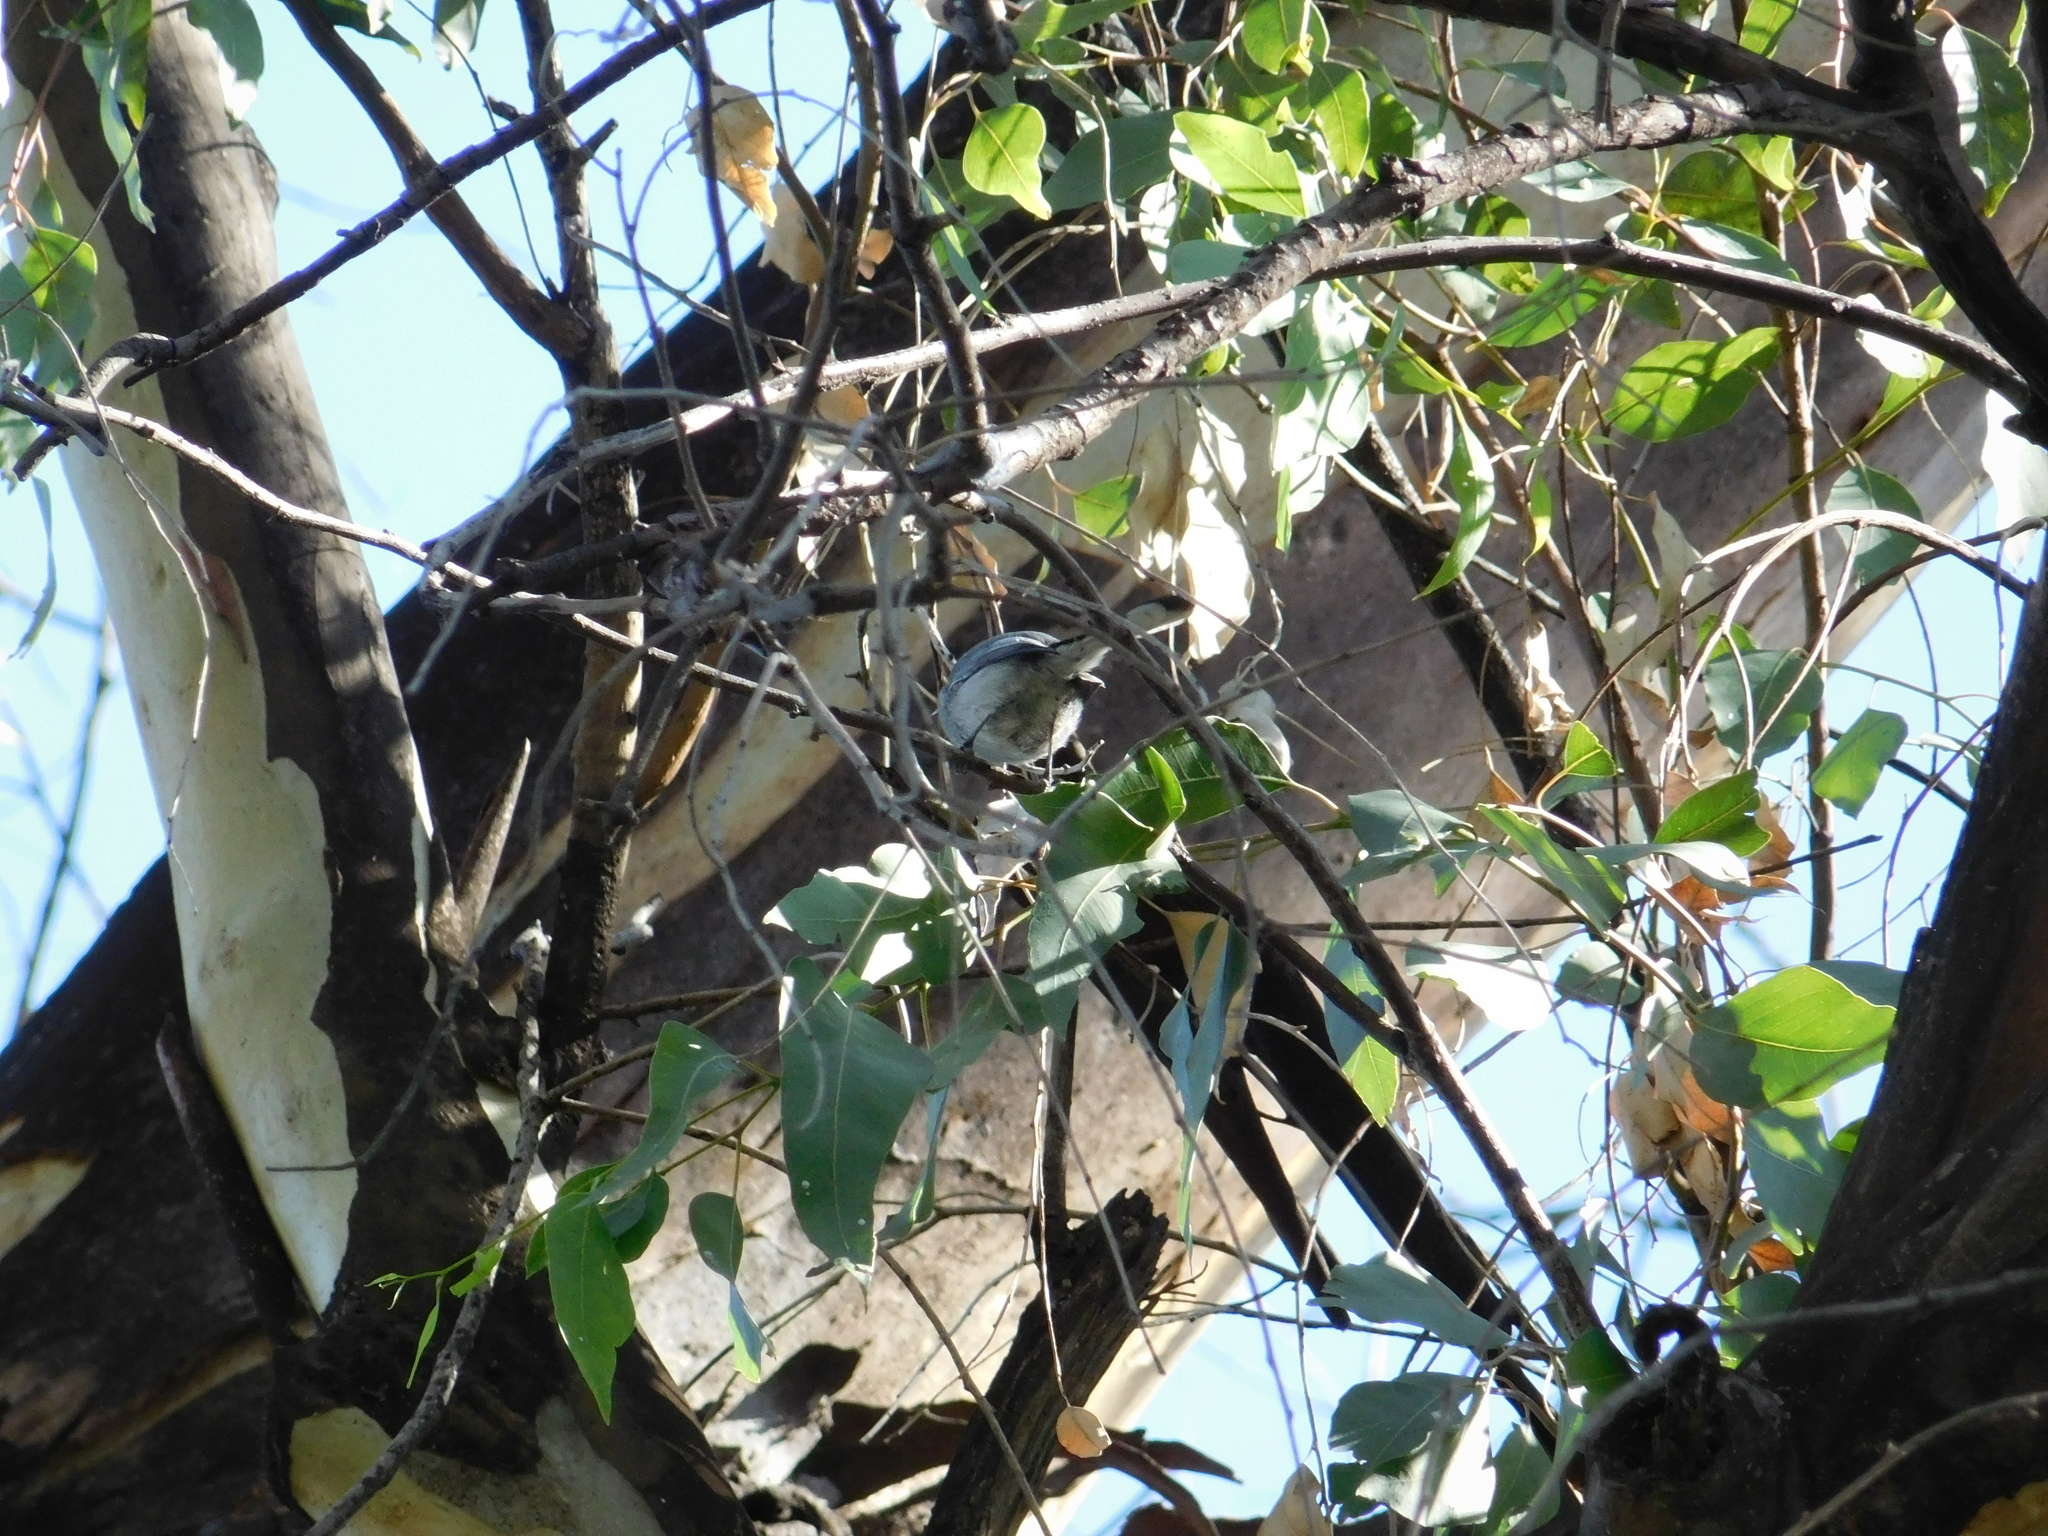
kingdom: Animalia
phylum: Chordata
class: Aves
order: Passeriformes
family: Polioptilidae
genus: Polioptila
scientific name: Polioptila dumicola
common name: Masked gnatcatcher
